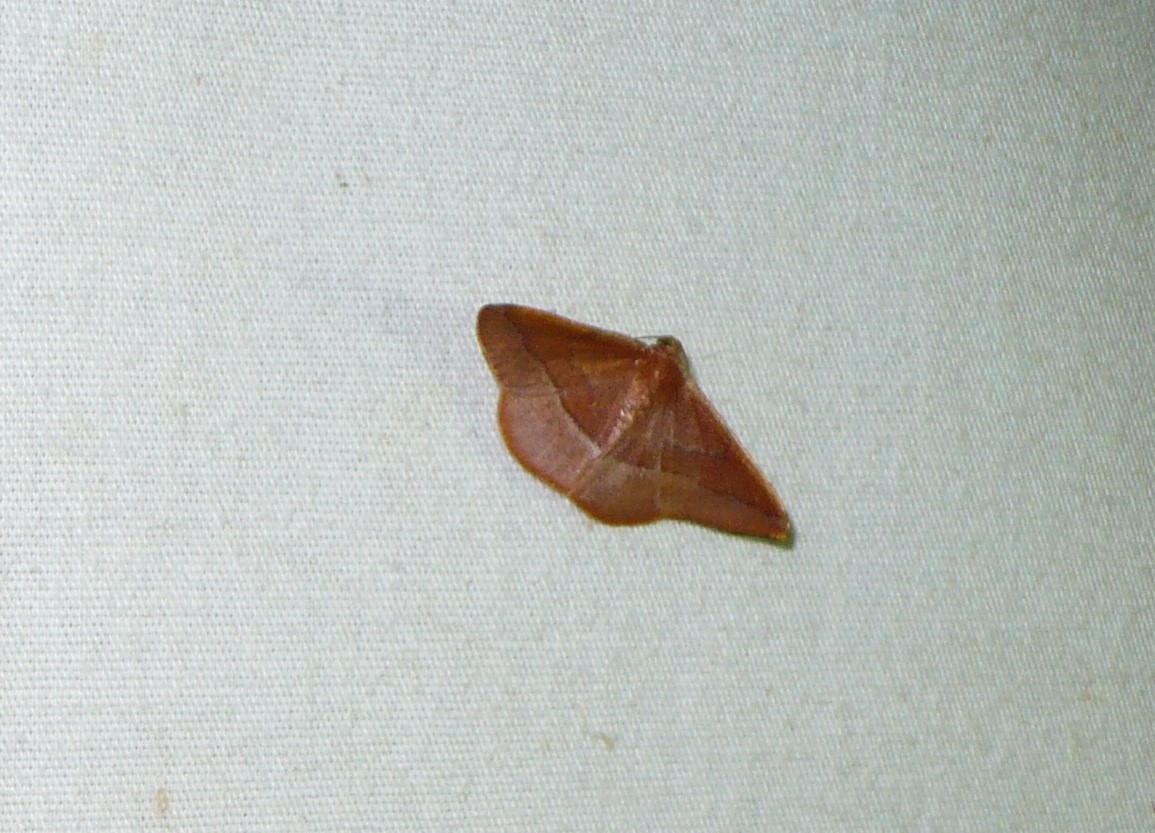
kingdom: Animalia
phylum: Arthropoda
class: Insecta
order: Lepidoptera
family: Geometridae
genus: Pyrinia
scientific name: Pyrinia optivata
